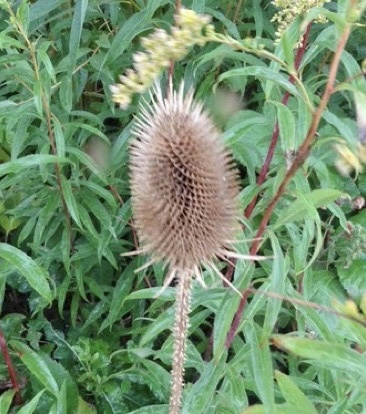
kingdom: Plantae
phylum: Tracheophyta
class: Magnoliopsida
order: Dipsacales
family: Caprifoliaceae
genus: Dipsacus
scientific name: Dipsacus fullonum
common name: Teasel
